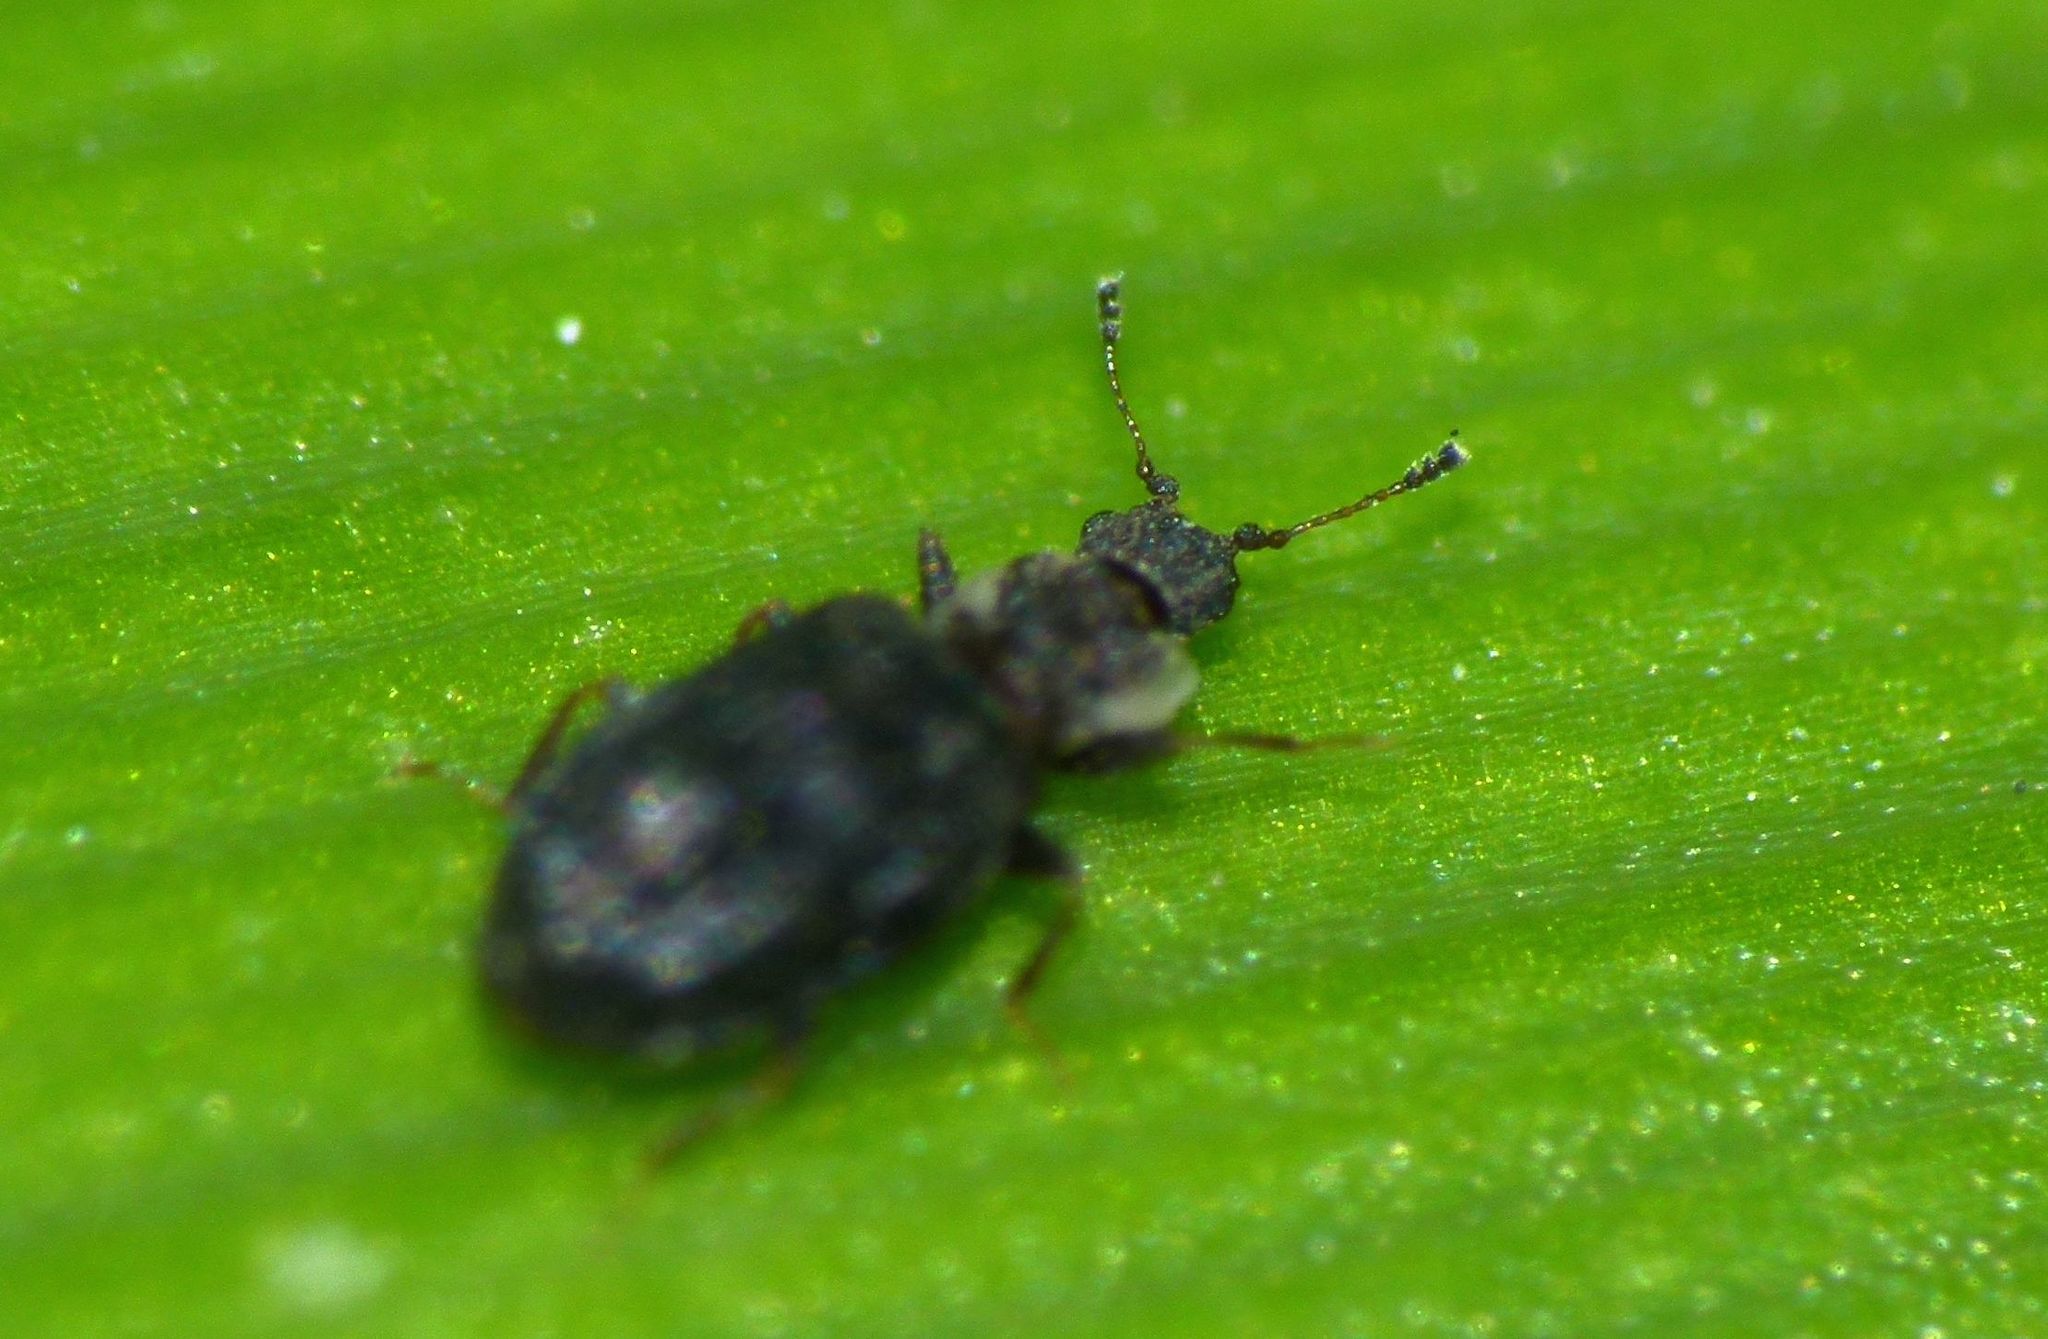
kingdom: Animalia
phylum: Arthropoda
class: Insecta
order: Coleoptera
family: Latridiidae
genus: Cartodere
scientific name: Cartodere nodifer
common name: Humpbacked minute scavenger beetle
